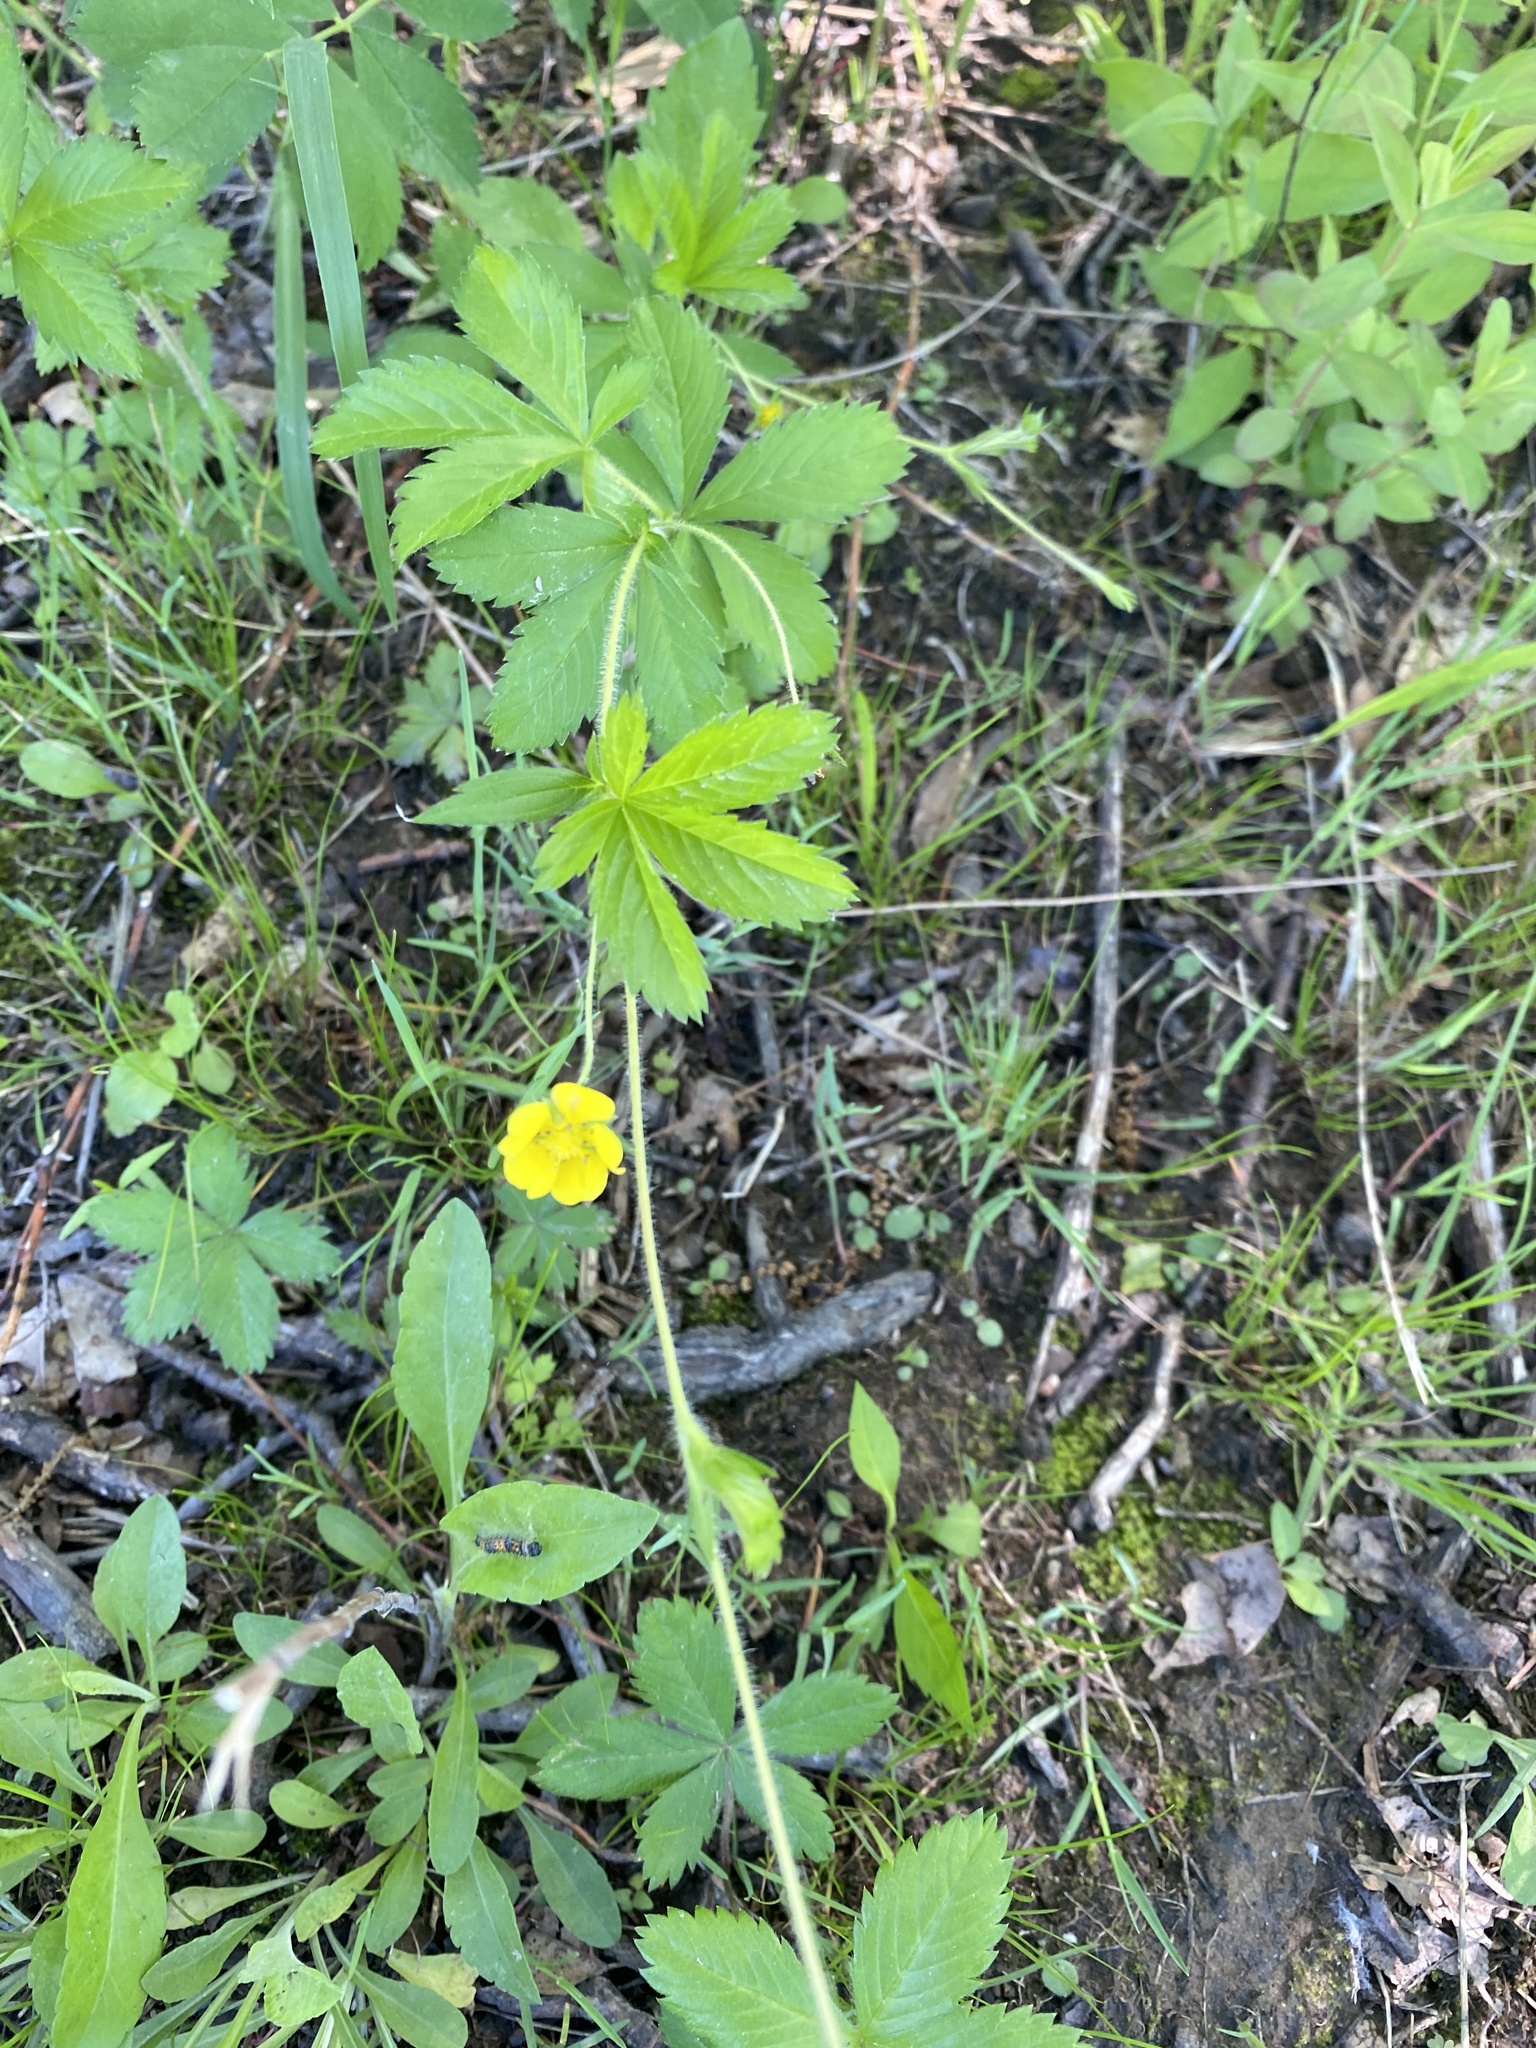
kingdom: Plantae
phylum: Tracheophyta
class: Magnoliopsida
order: Rosales
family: Rosaceae
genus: Potentilla
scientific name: Potentilla simplex
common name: Old field cinquefoil
